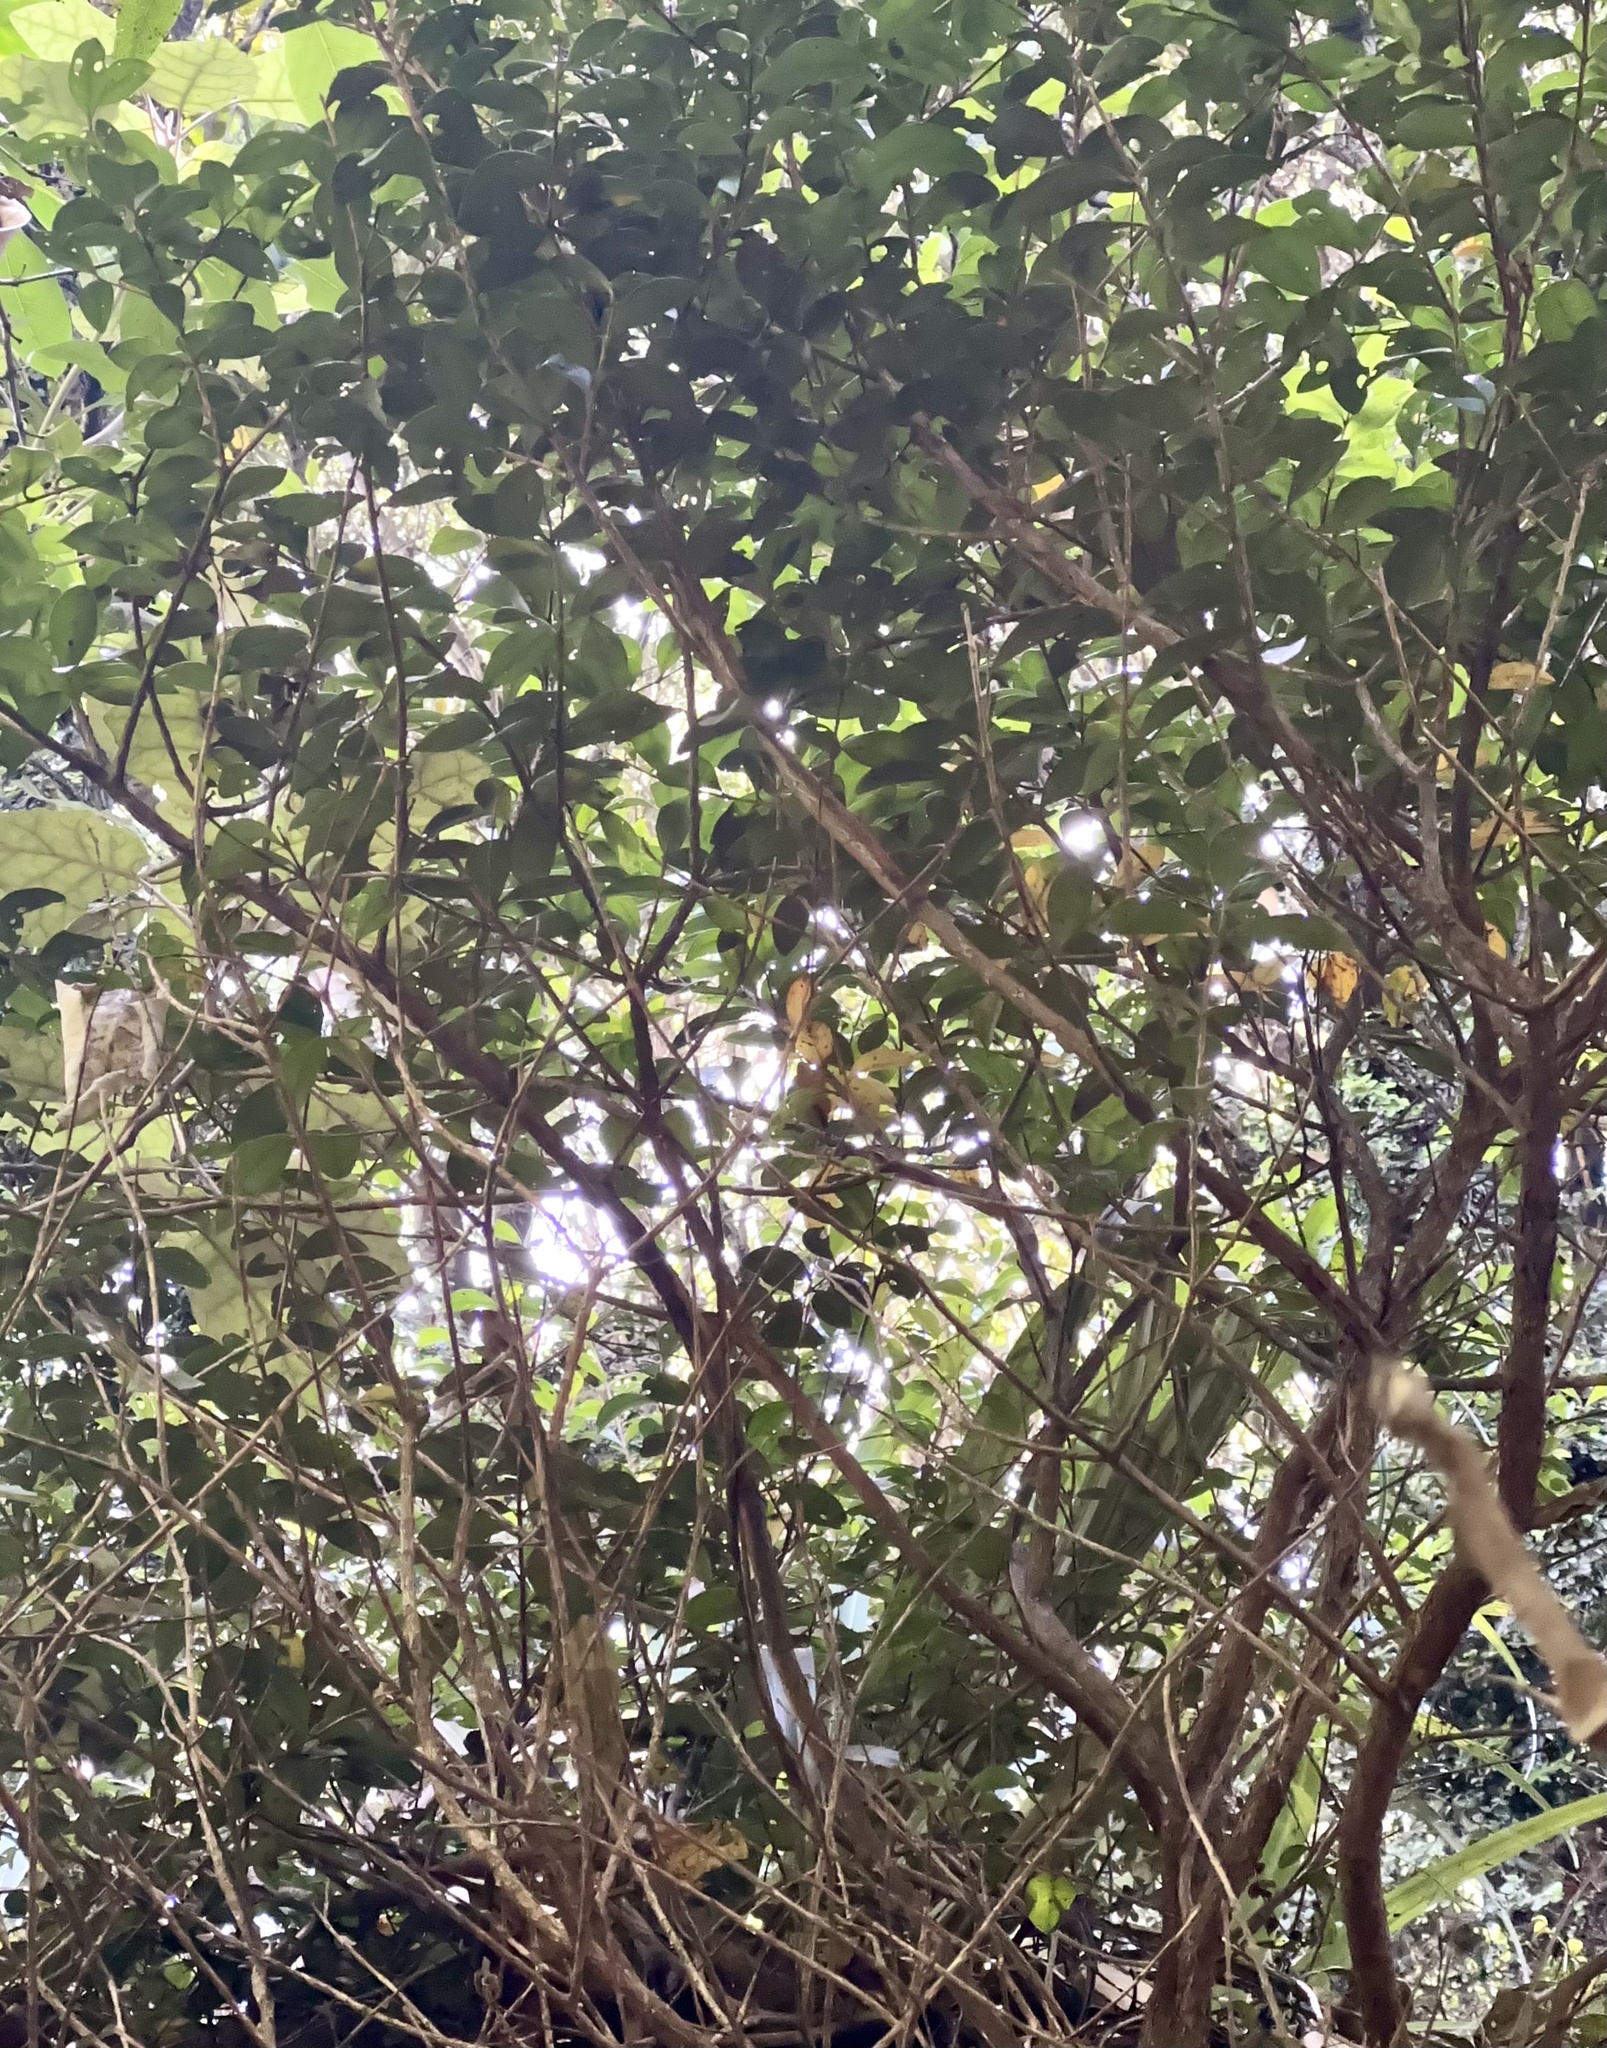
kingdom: Plantae
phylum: Tracheophyta
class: Magnoliopsida
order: Myrtales
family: Myrtaceae
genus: Metrosideros
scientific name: Metrosideros fulgens
